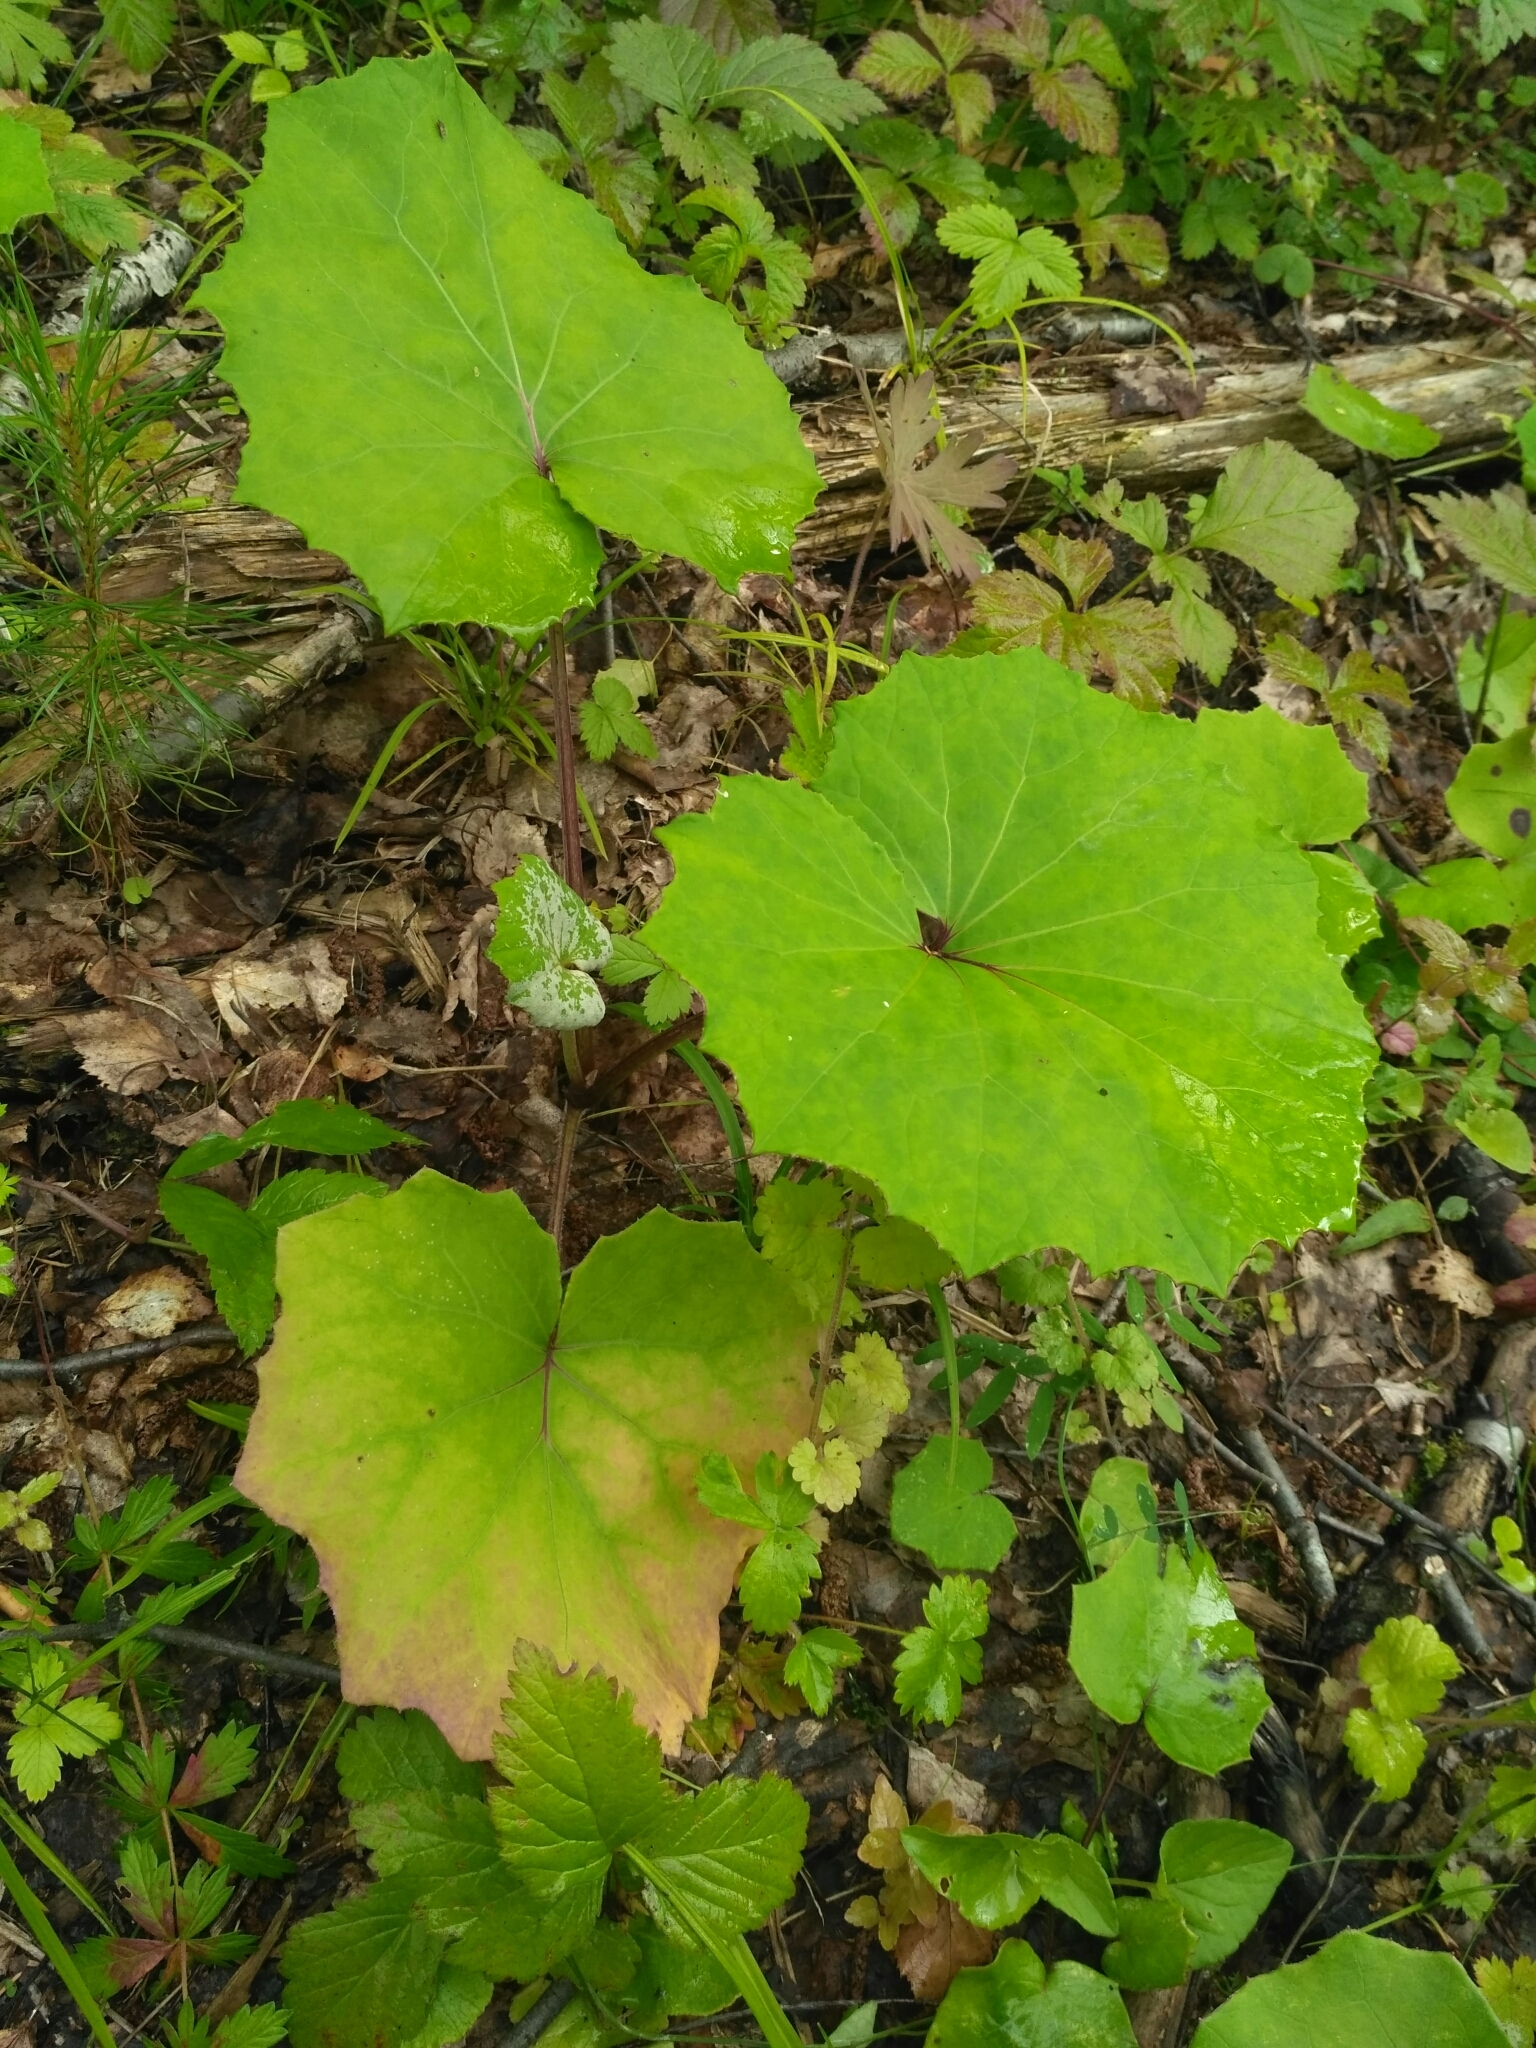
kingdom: Plantae
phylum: Tracheophyta
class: Magnoliopsida
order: Asterales
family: Asteraceae
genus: Tussilago
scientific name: Tussilago farfara
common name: Coltsfoot
